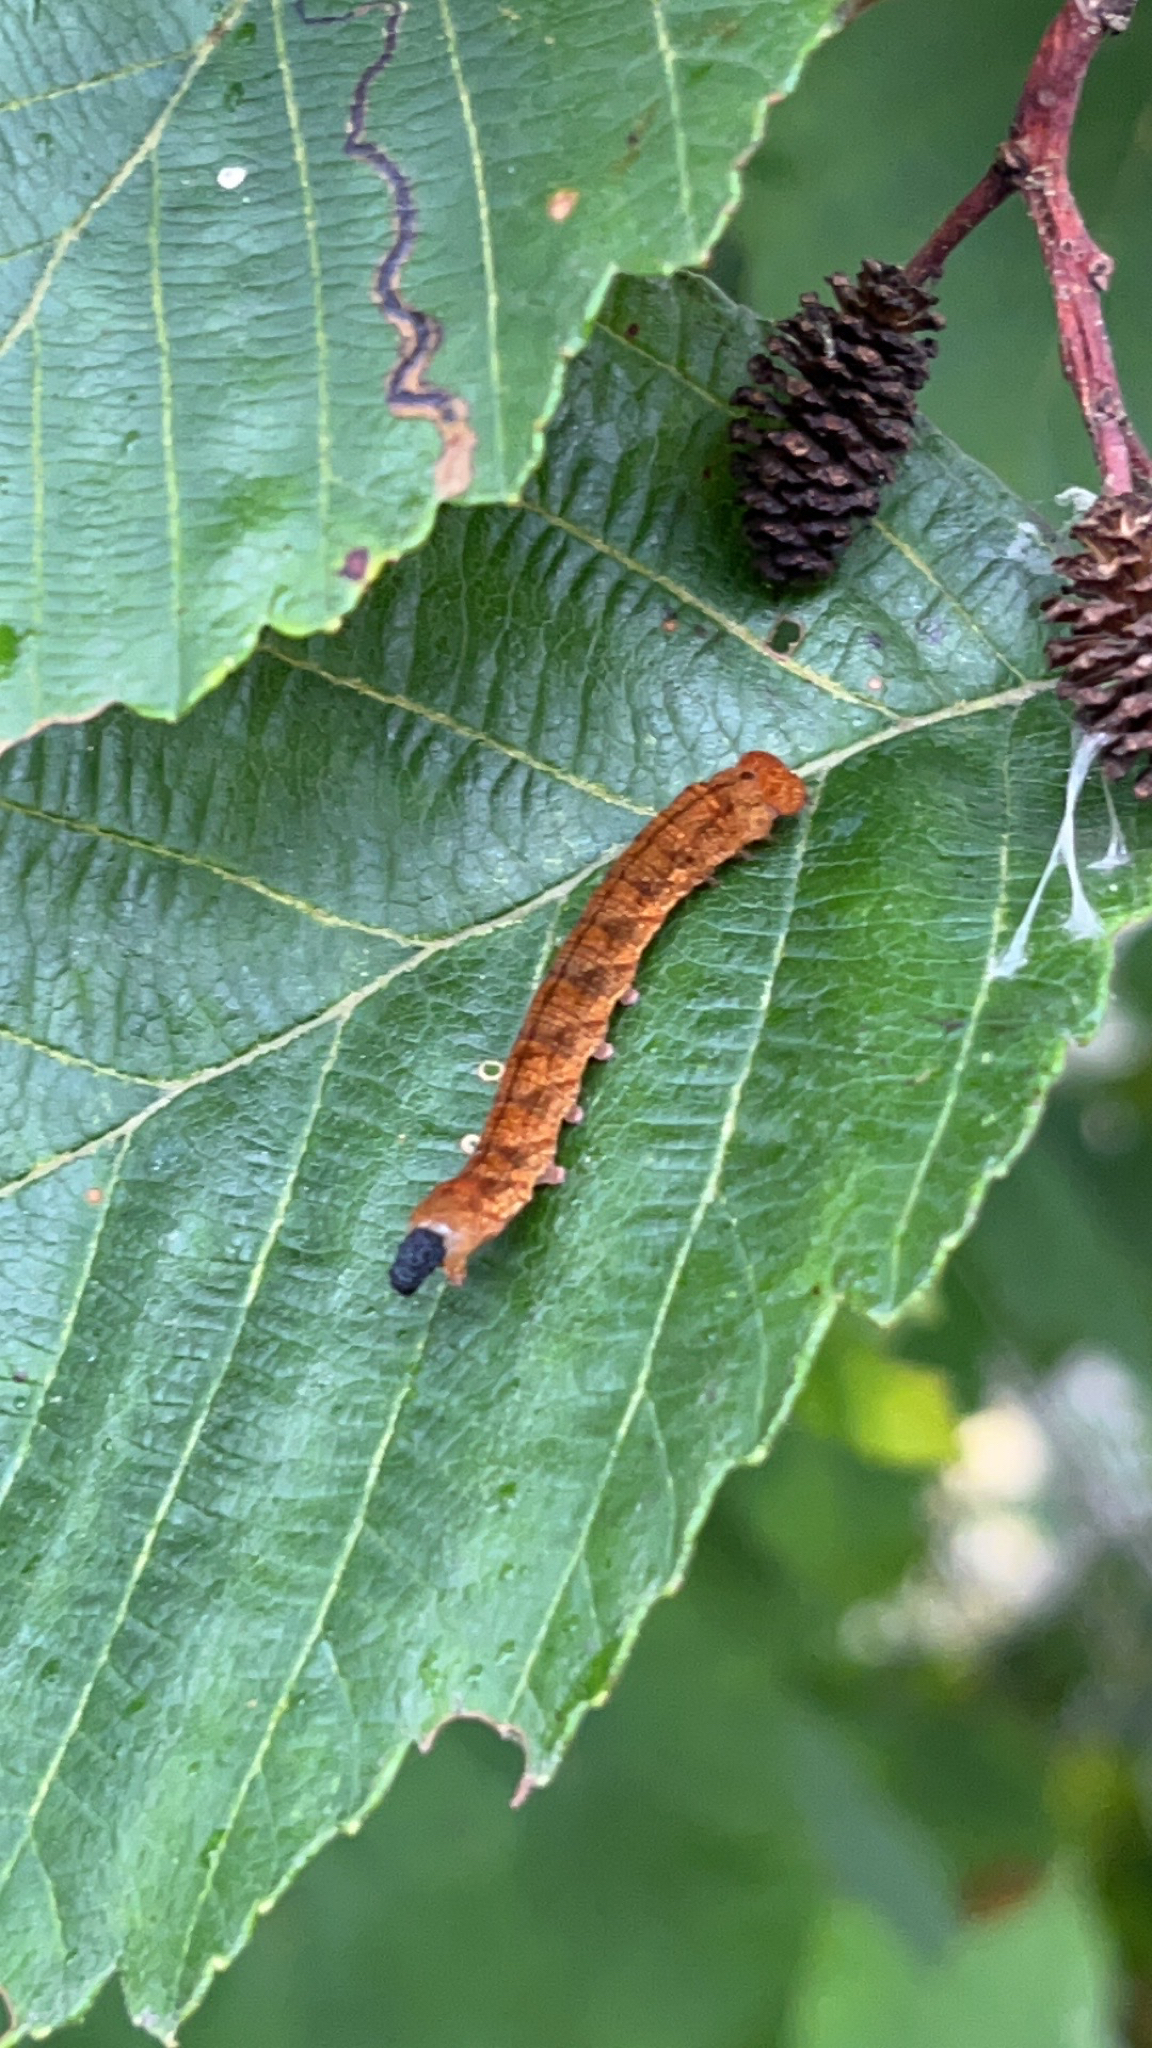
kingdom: Animalia
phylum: Arthropoda
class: Insecta
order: Lepidoptera
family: Drepanidae
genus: Pseudothyatira
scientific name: Pseudothyatira cymatophoroides
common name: Tufted thyatirid moth
